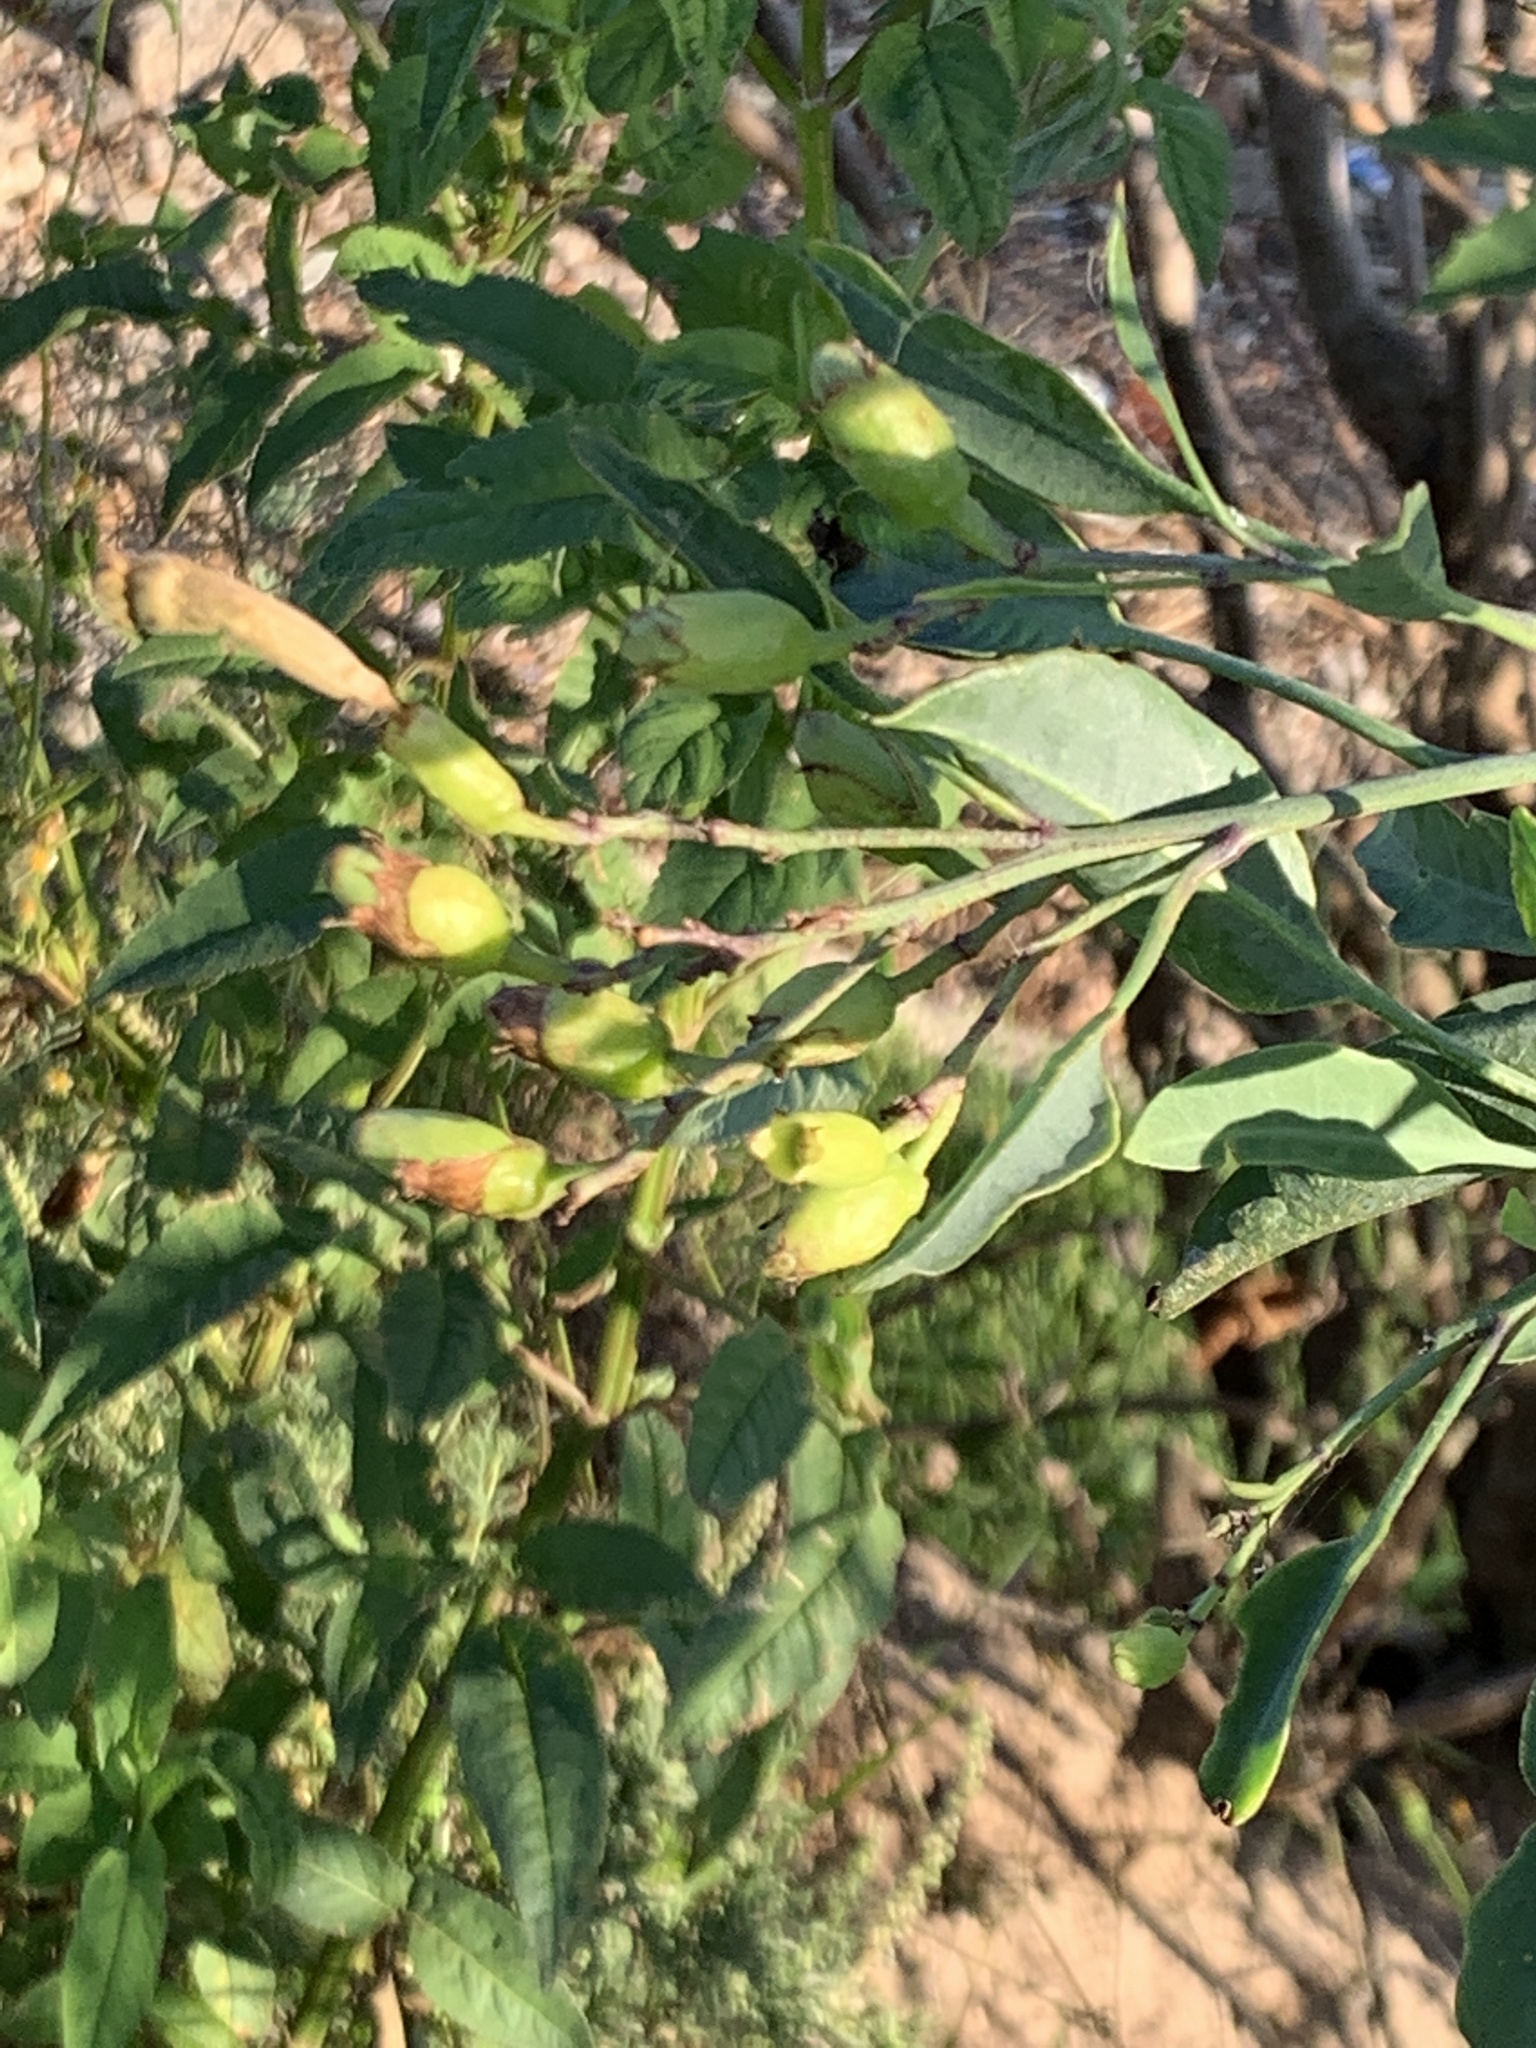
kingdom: Plantae
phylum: Tracheophyta
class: Magnoliopsida
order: Solanales
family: Solanaceae
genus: Nicotiana
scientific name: Nicotiana glauca
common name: Tree tobacco
